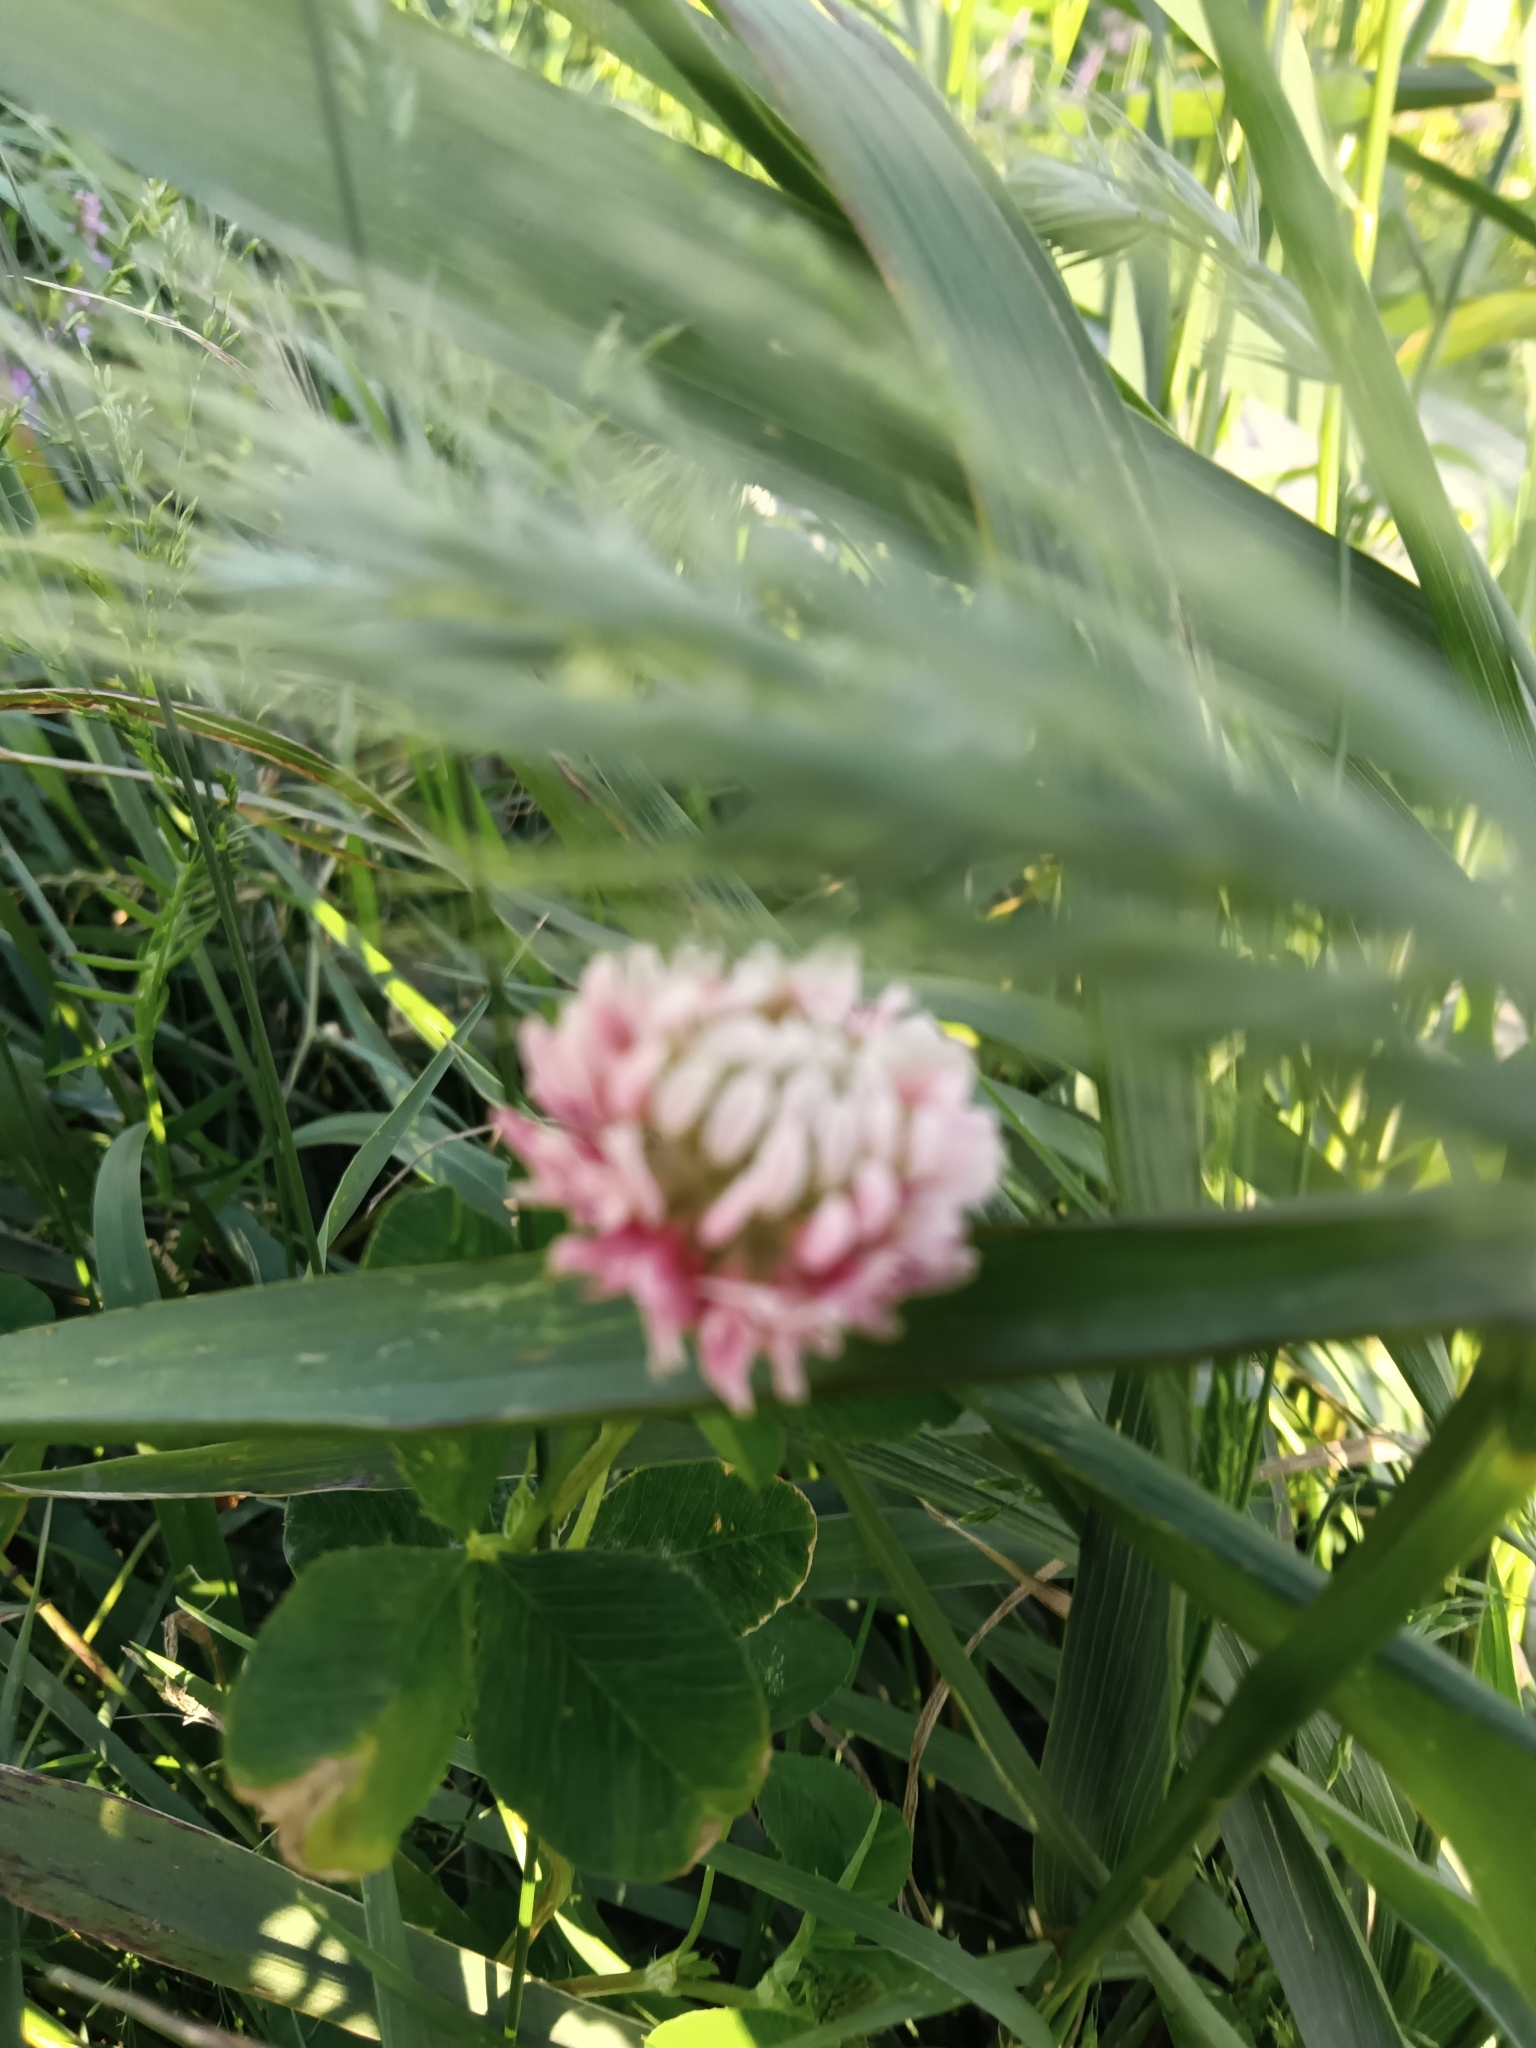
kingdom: Plantae
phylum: Tracheophyta
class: Magnoliopsida
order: Fabales
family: Fabaceae
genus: Trifolium
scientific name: Trifolium hybridum
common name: Alsike clover
